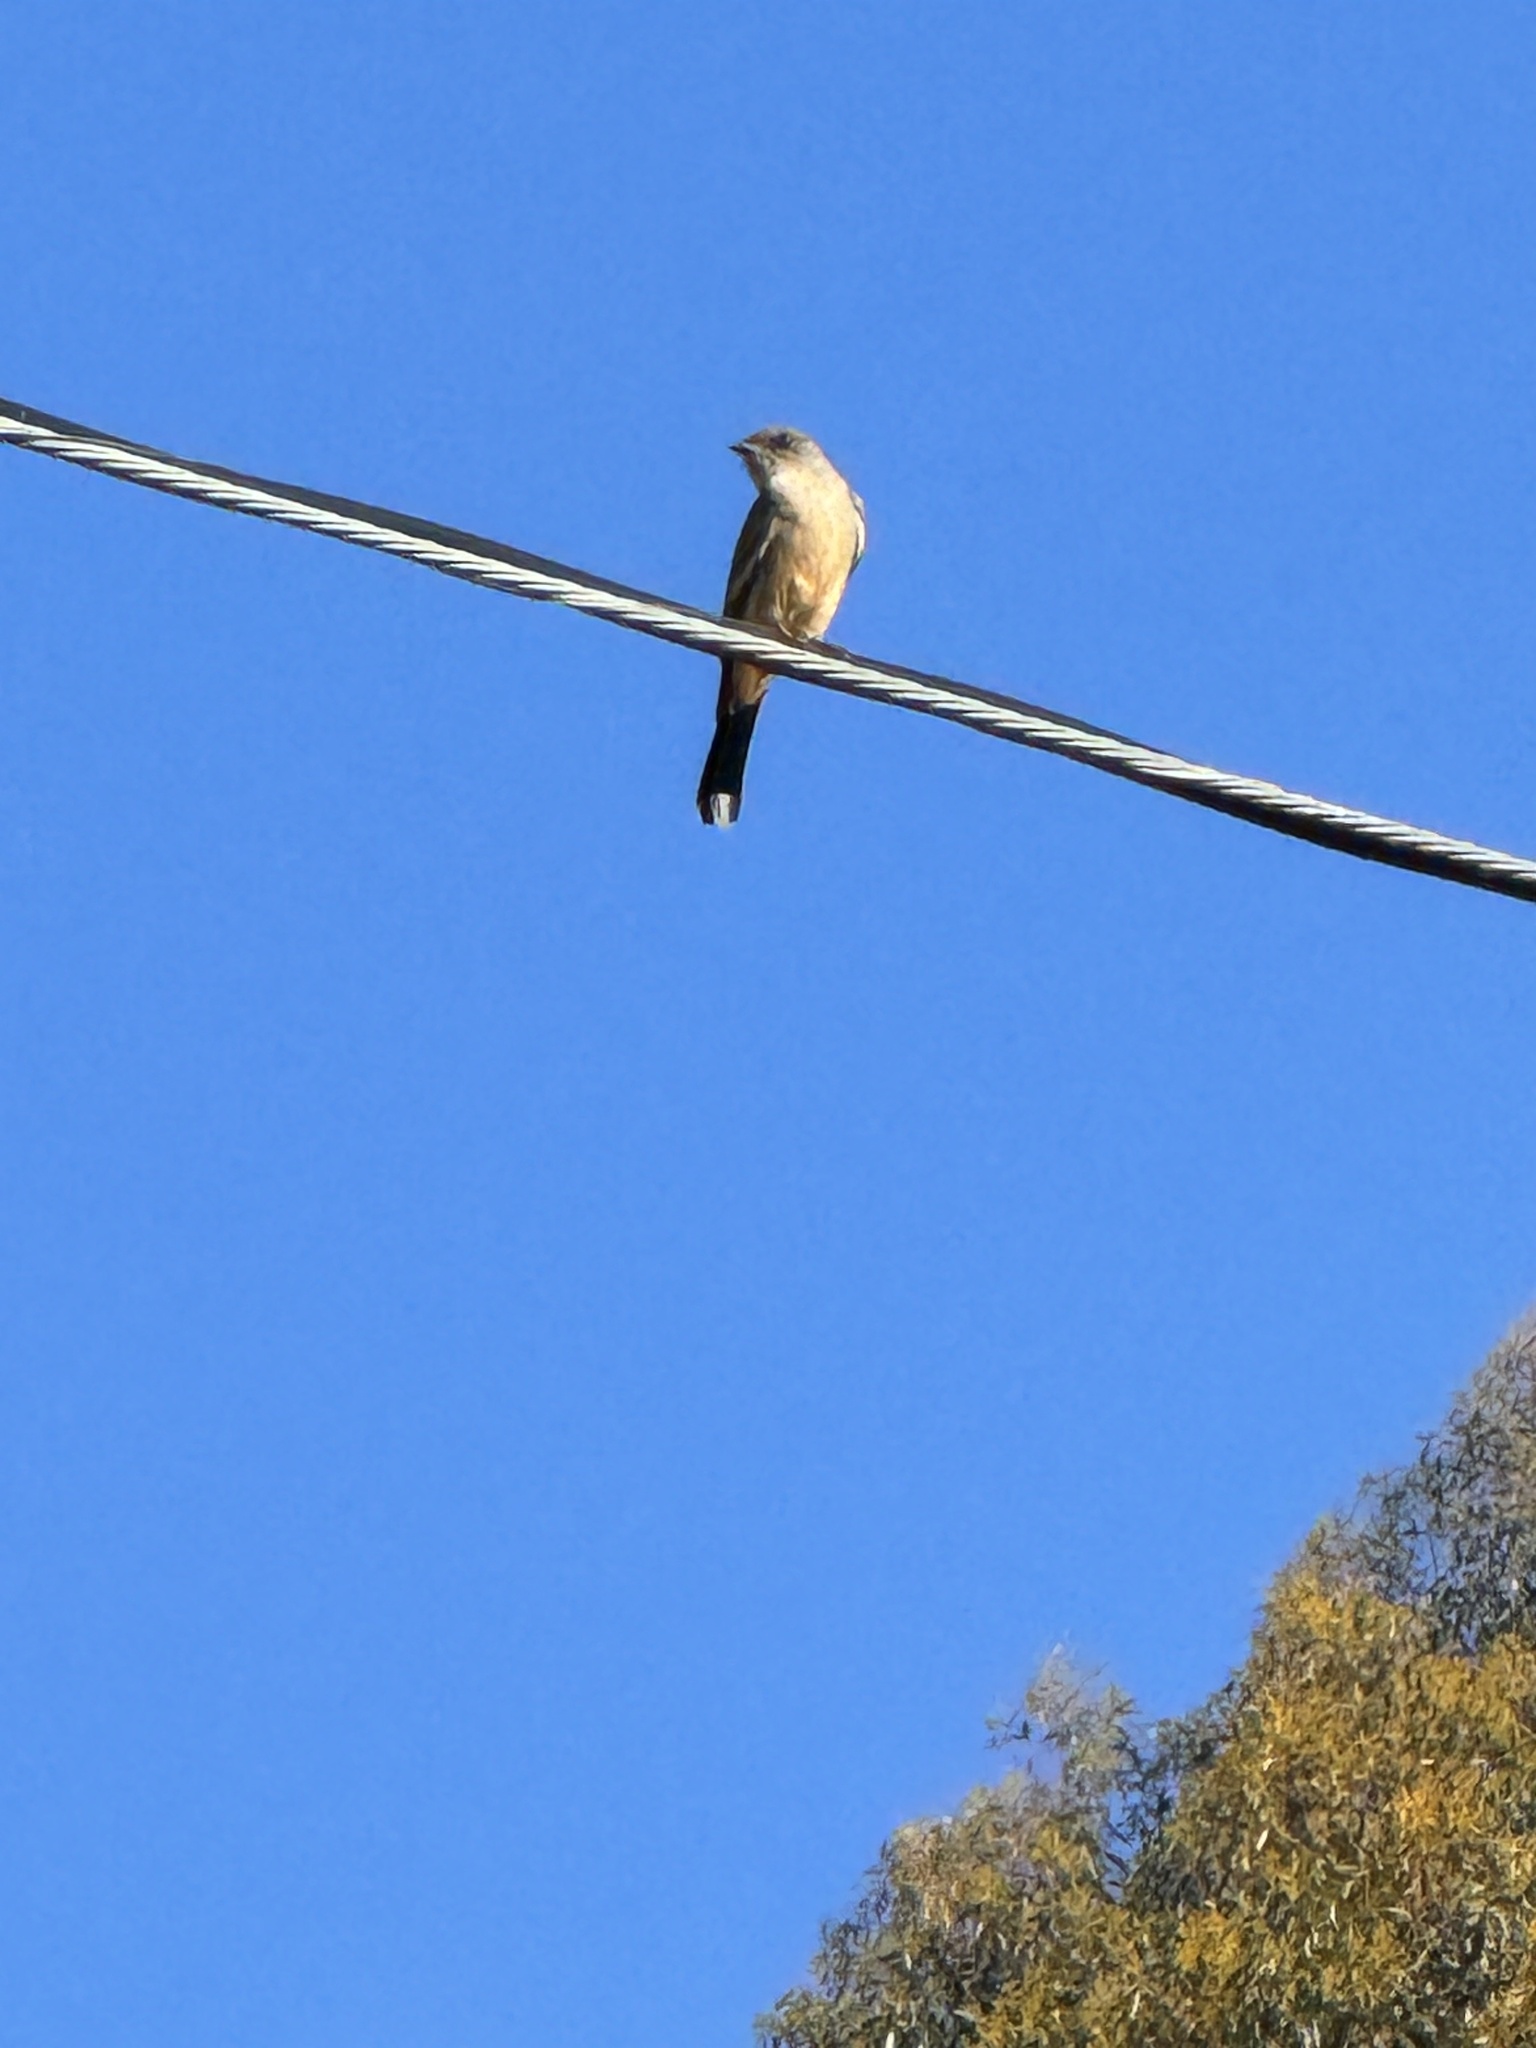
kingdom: Animalia
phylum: Chordata
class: Aves
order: Passeriformes
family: Tyrannidae
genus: Sayornis
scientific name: Sayornis saya
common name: Say's phoebe
